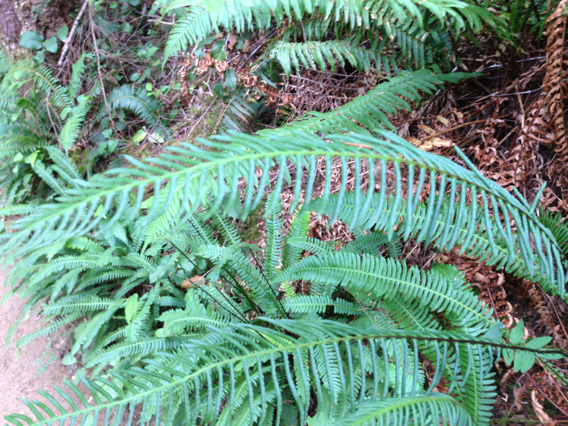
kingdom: Plantae
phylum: Tracheophyta
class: Polypodiopsida
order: Polypodiales
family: Blechnaceae
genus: Struthiopteris
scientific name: Struthiopteris spicant
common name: Deer fern
